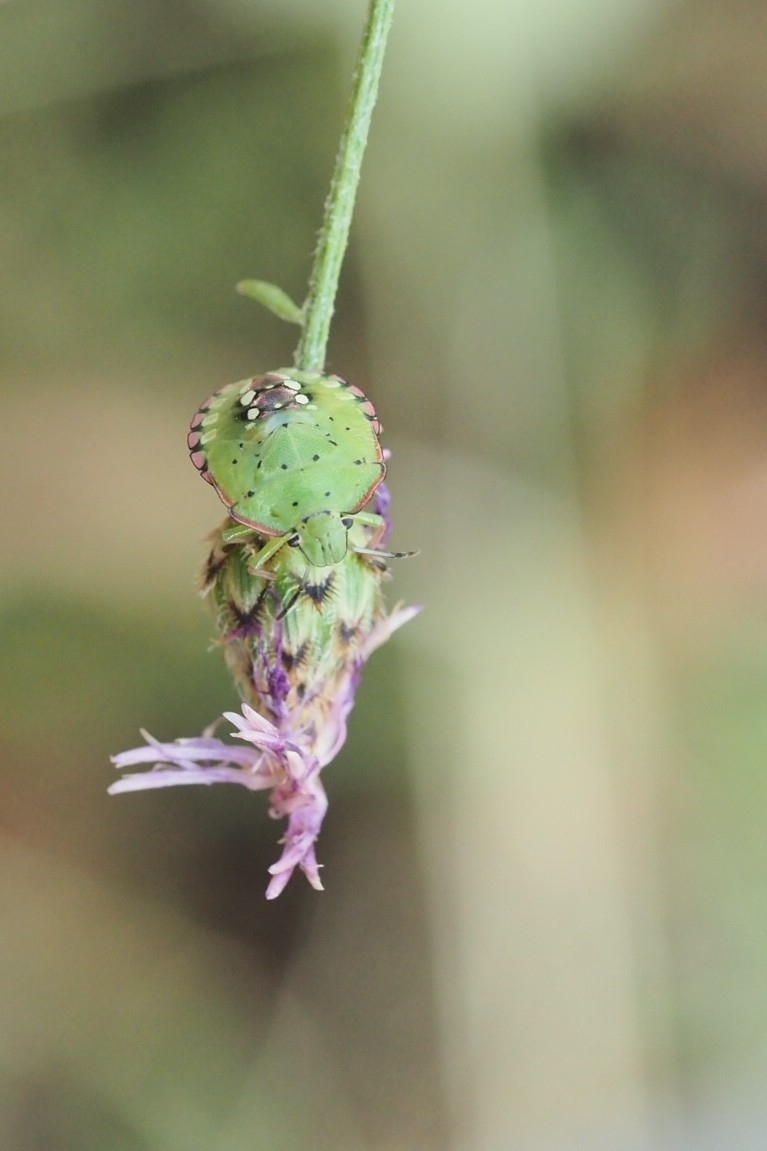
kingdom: Animalia
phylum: Arthropoda
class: Insecta
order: Hemiptera
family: Pentatomidae
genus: Nezara
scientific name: Nezara viridula
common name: Southern green stink bug
